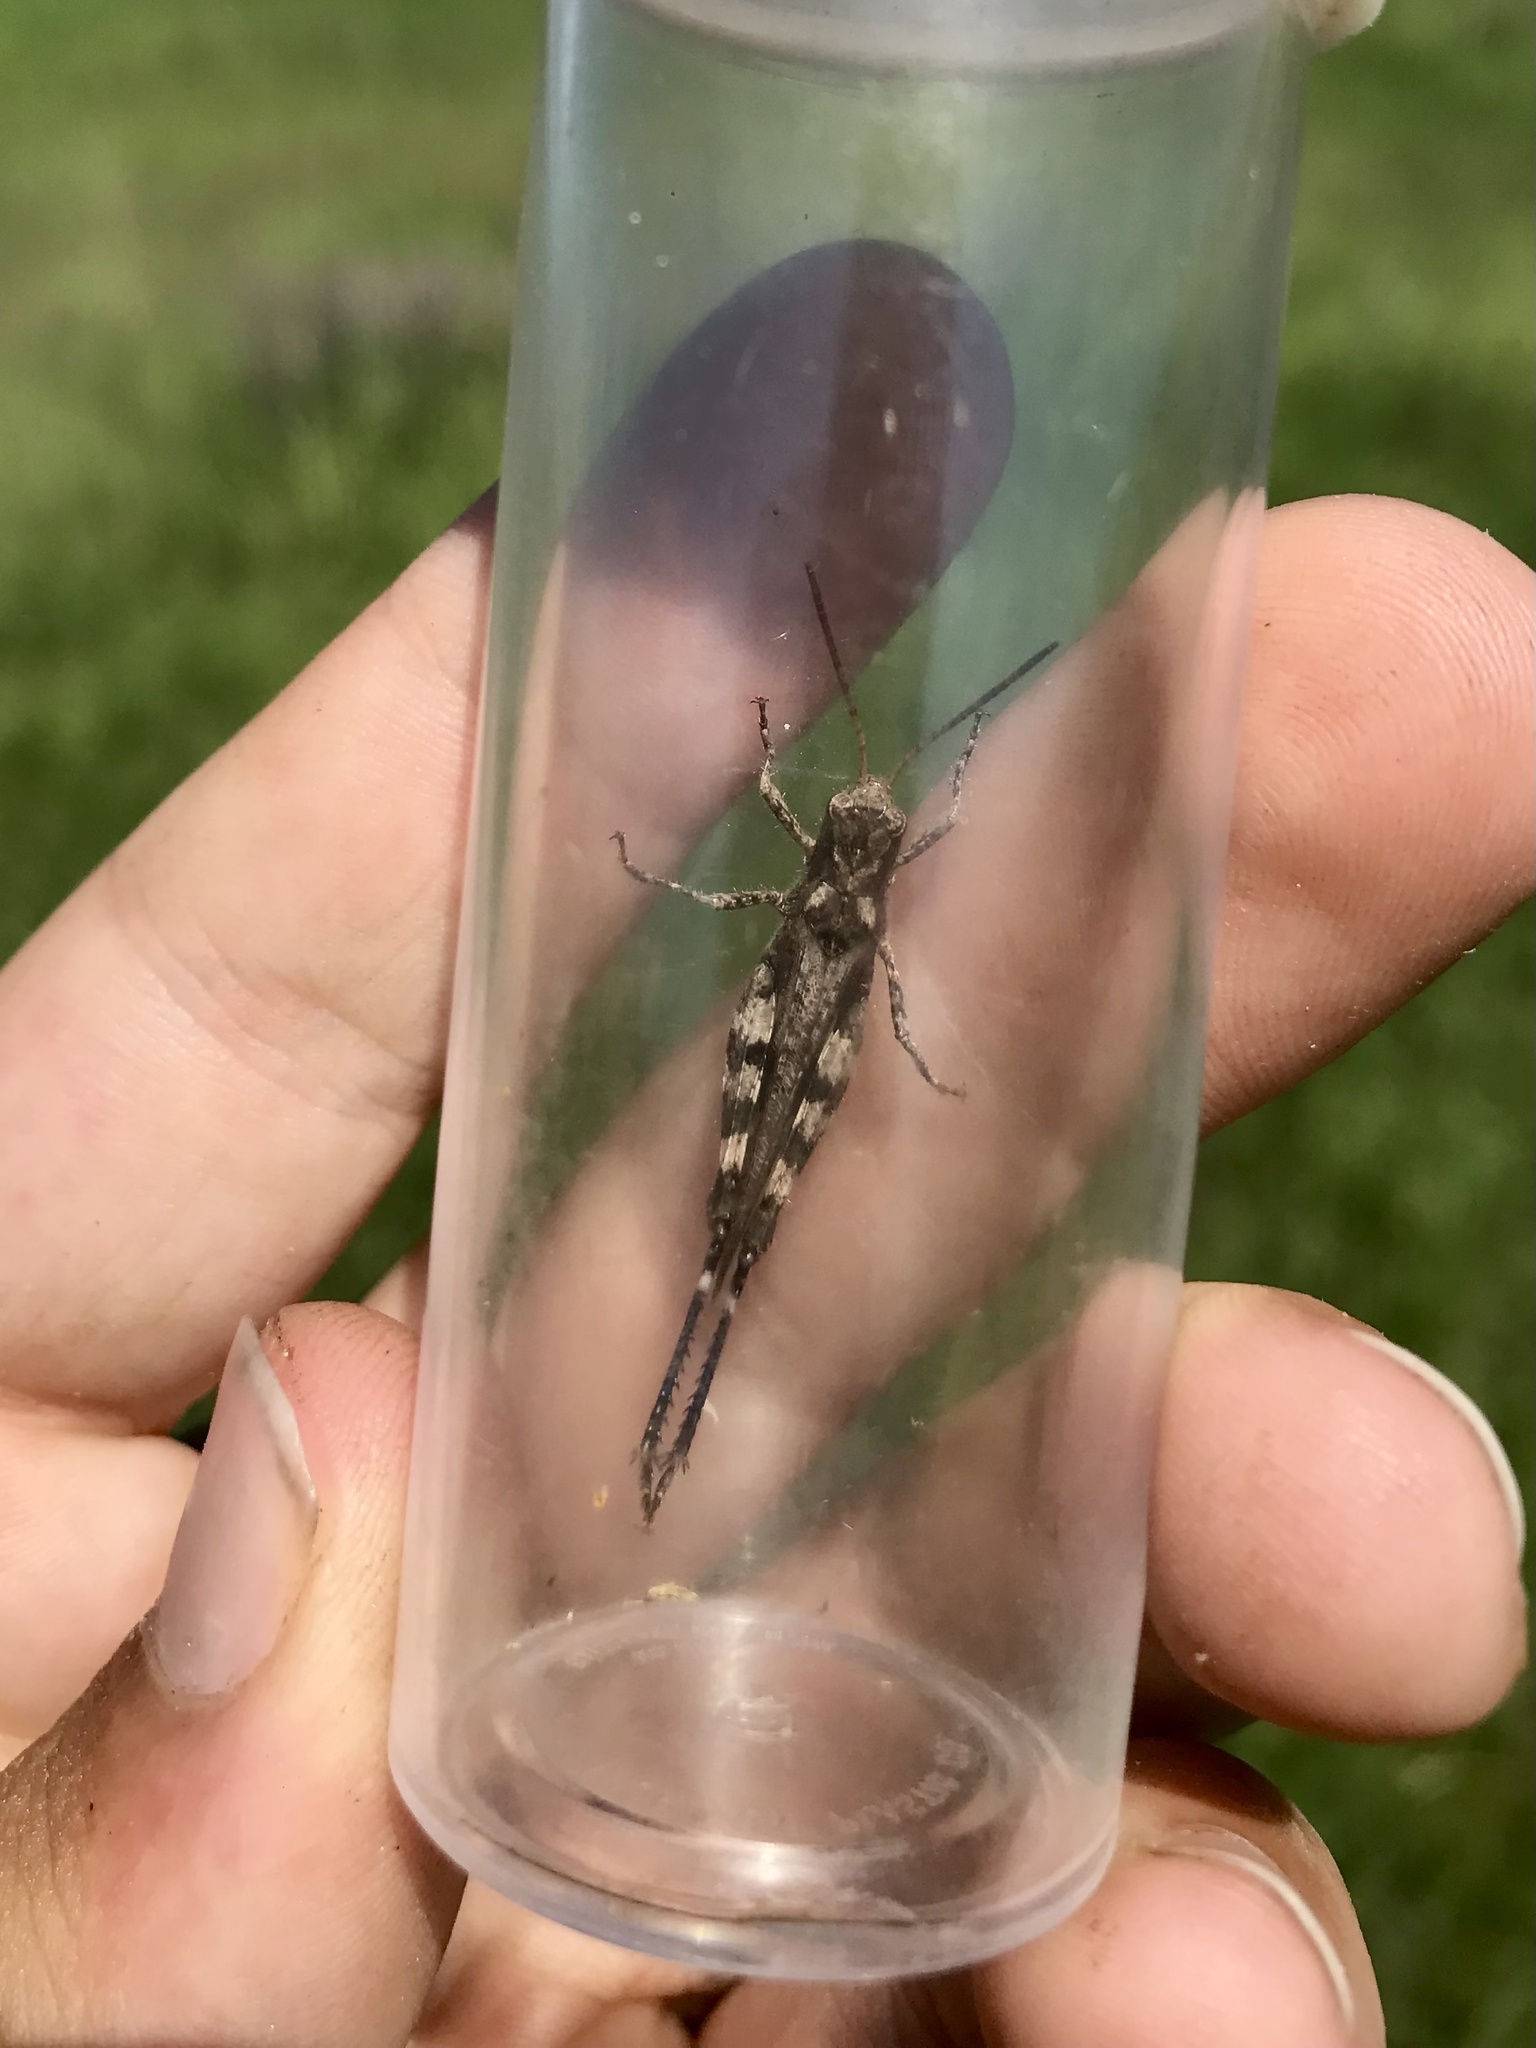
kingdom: Animalia
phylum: Arthropoda
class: Insecta
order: Orthoptera
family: Acrididae
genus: Encoptolophus
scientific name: Encoptolophus sordidus
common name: Dusky grasshopper
